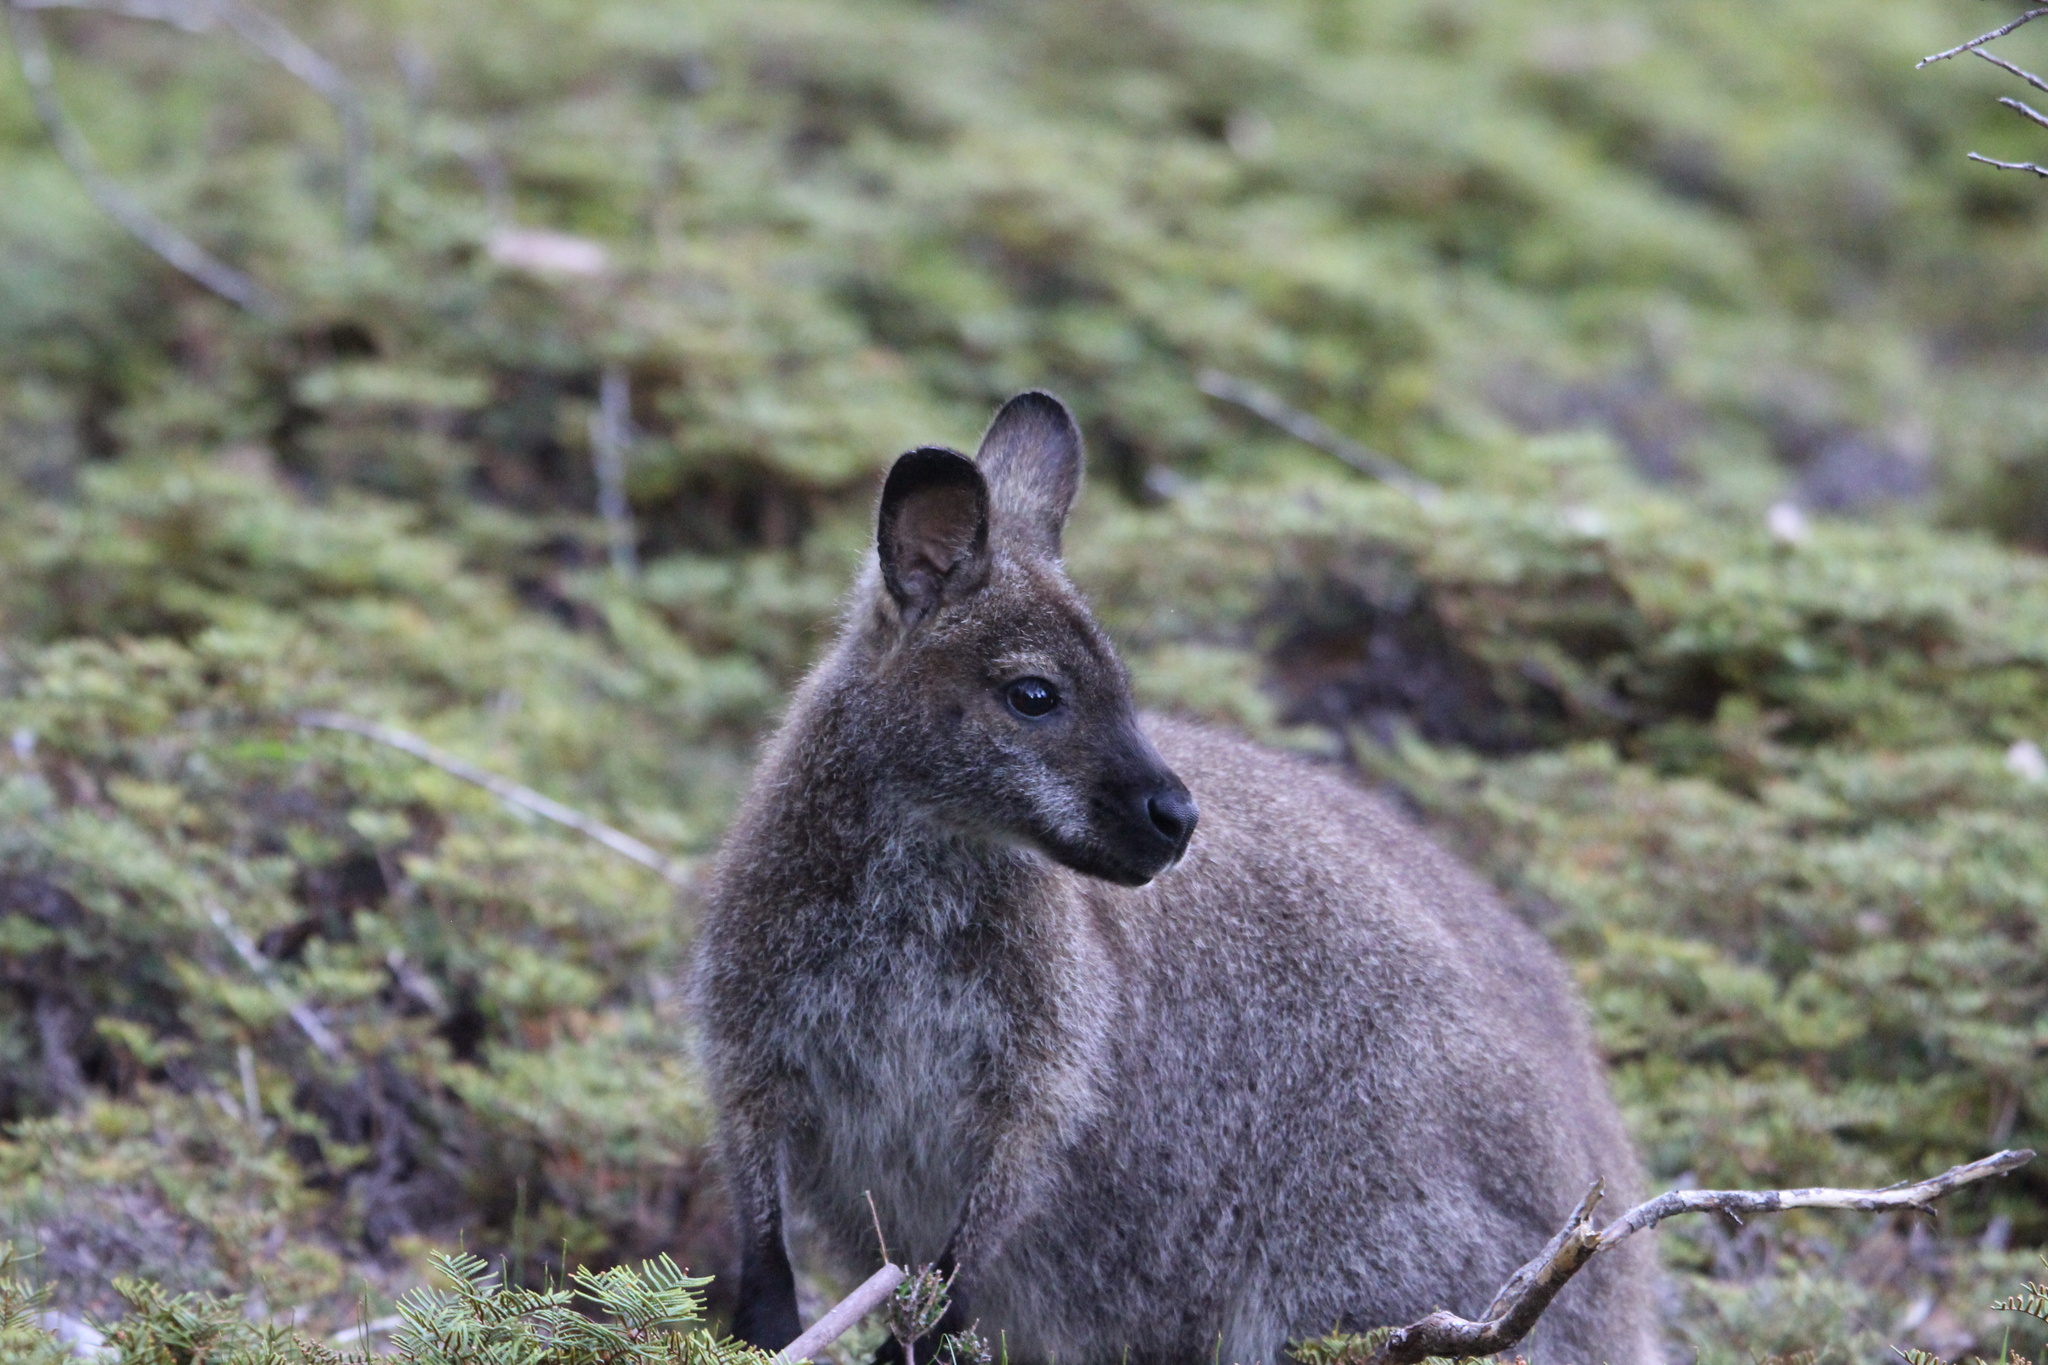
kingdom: Animalia
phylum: Chordata
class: Mammalia
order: Diprotodontia
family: Macropodidae
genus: Notamacropus
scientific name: Notamacropus rufogriseus
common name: Red-necked wallaby
